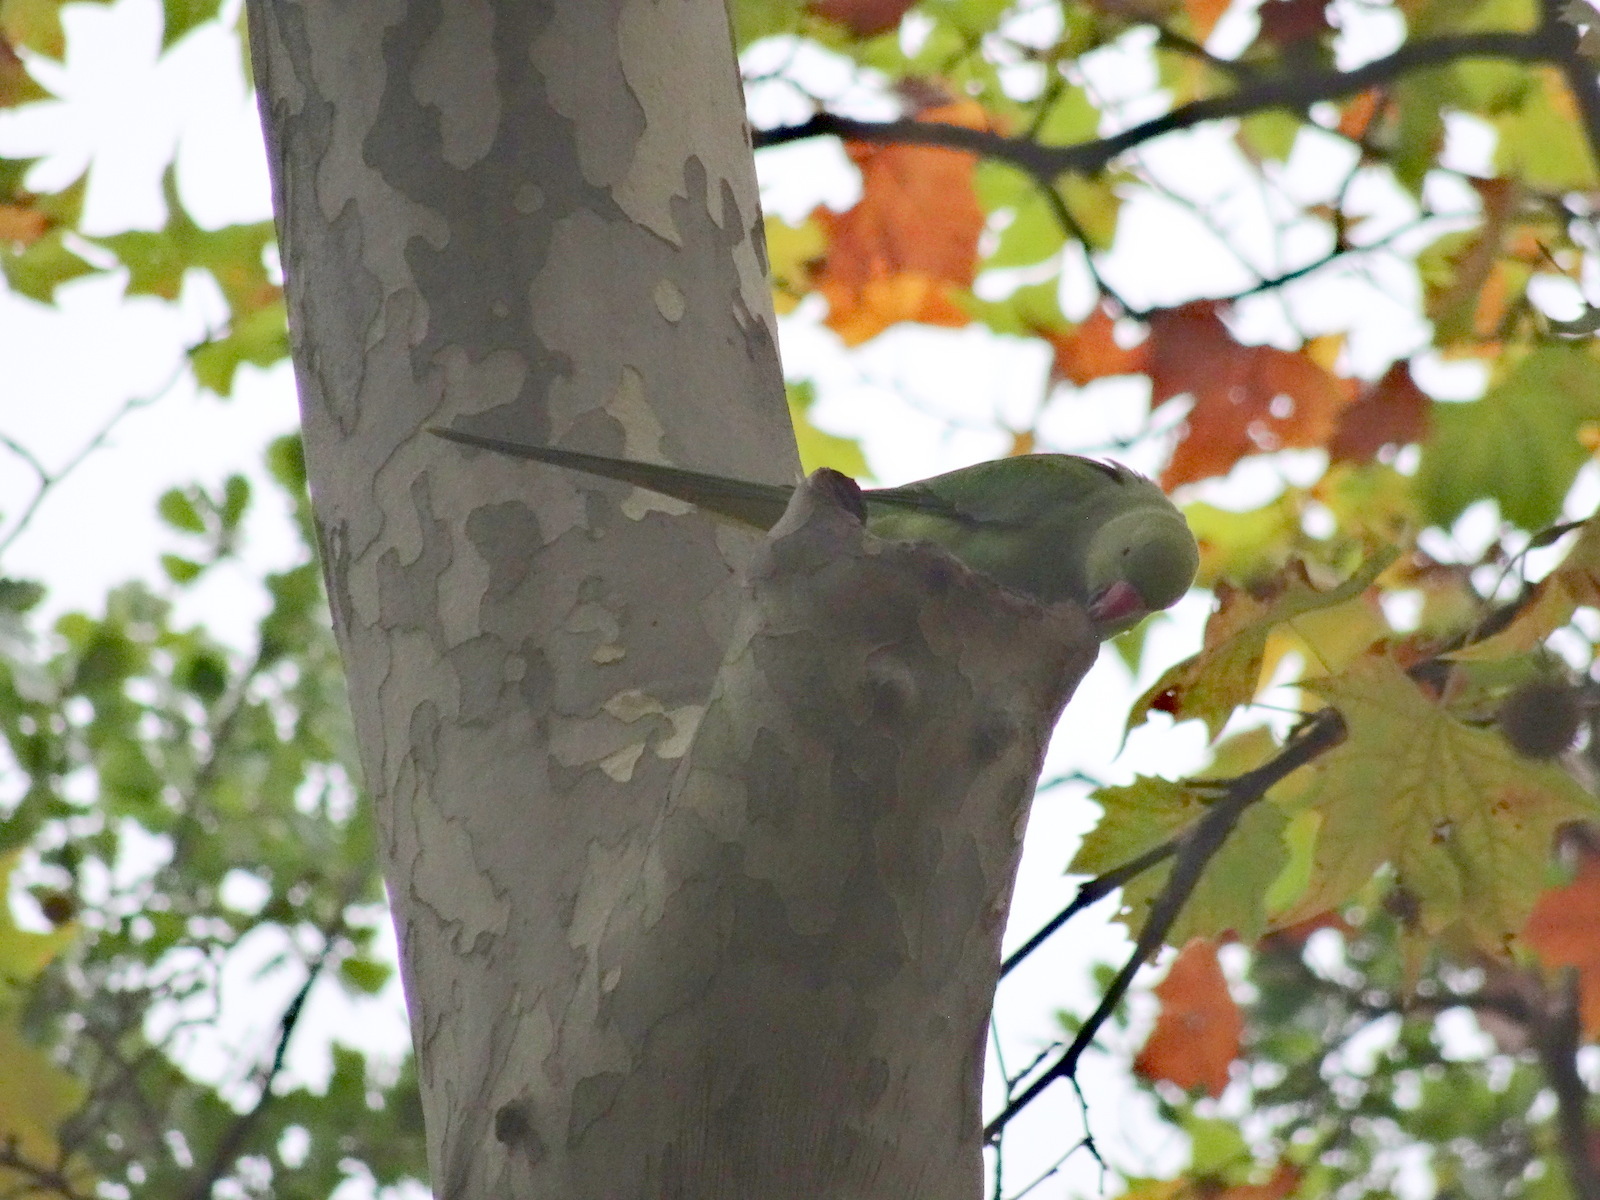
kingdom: Animalia
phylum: Chordata
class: Aves
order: Psittaciformes
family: Psittacidae
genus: Psittacula
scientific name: Psittacula krameri
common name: Rose-ringed parakeet
